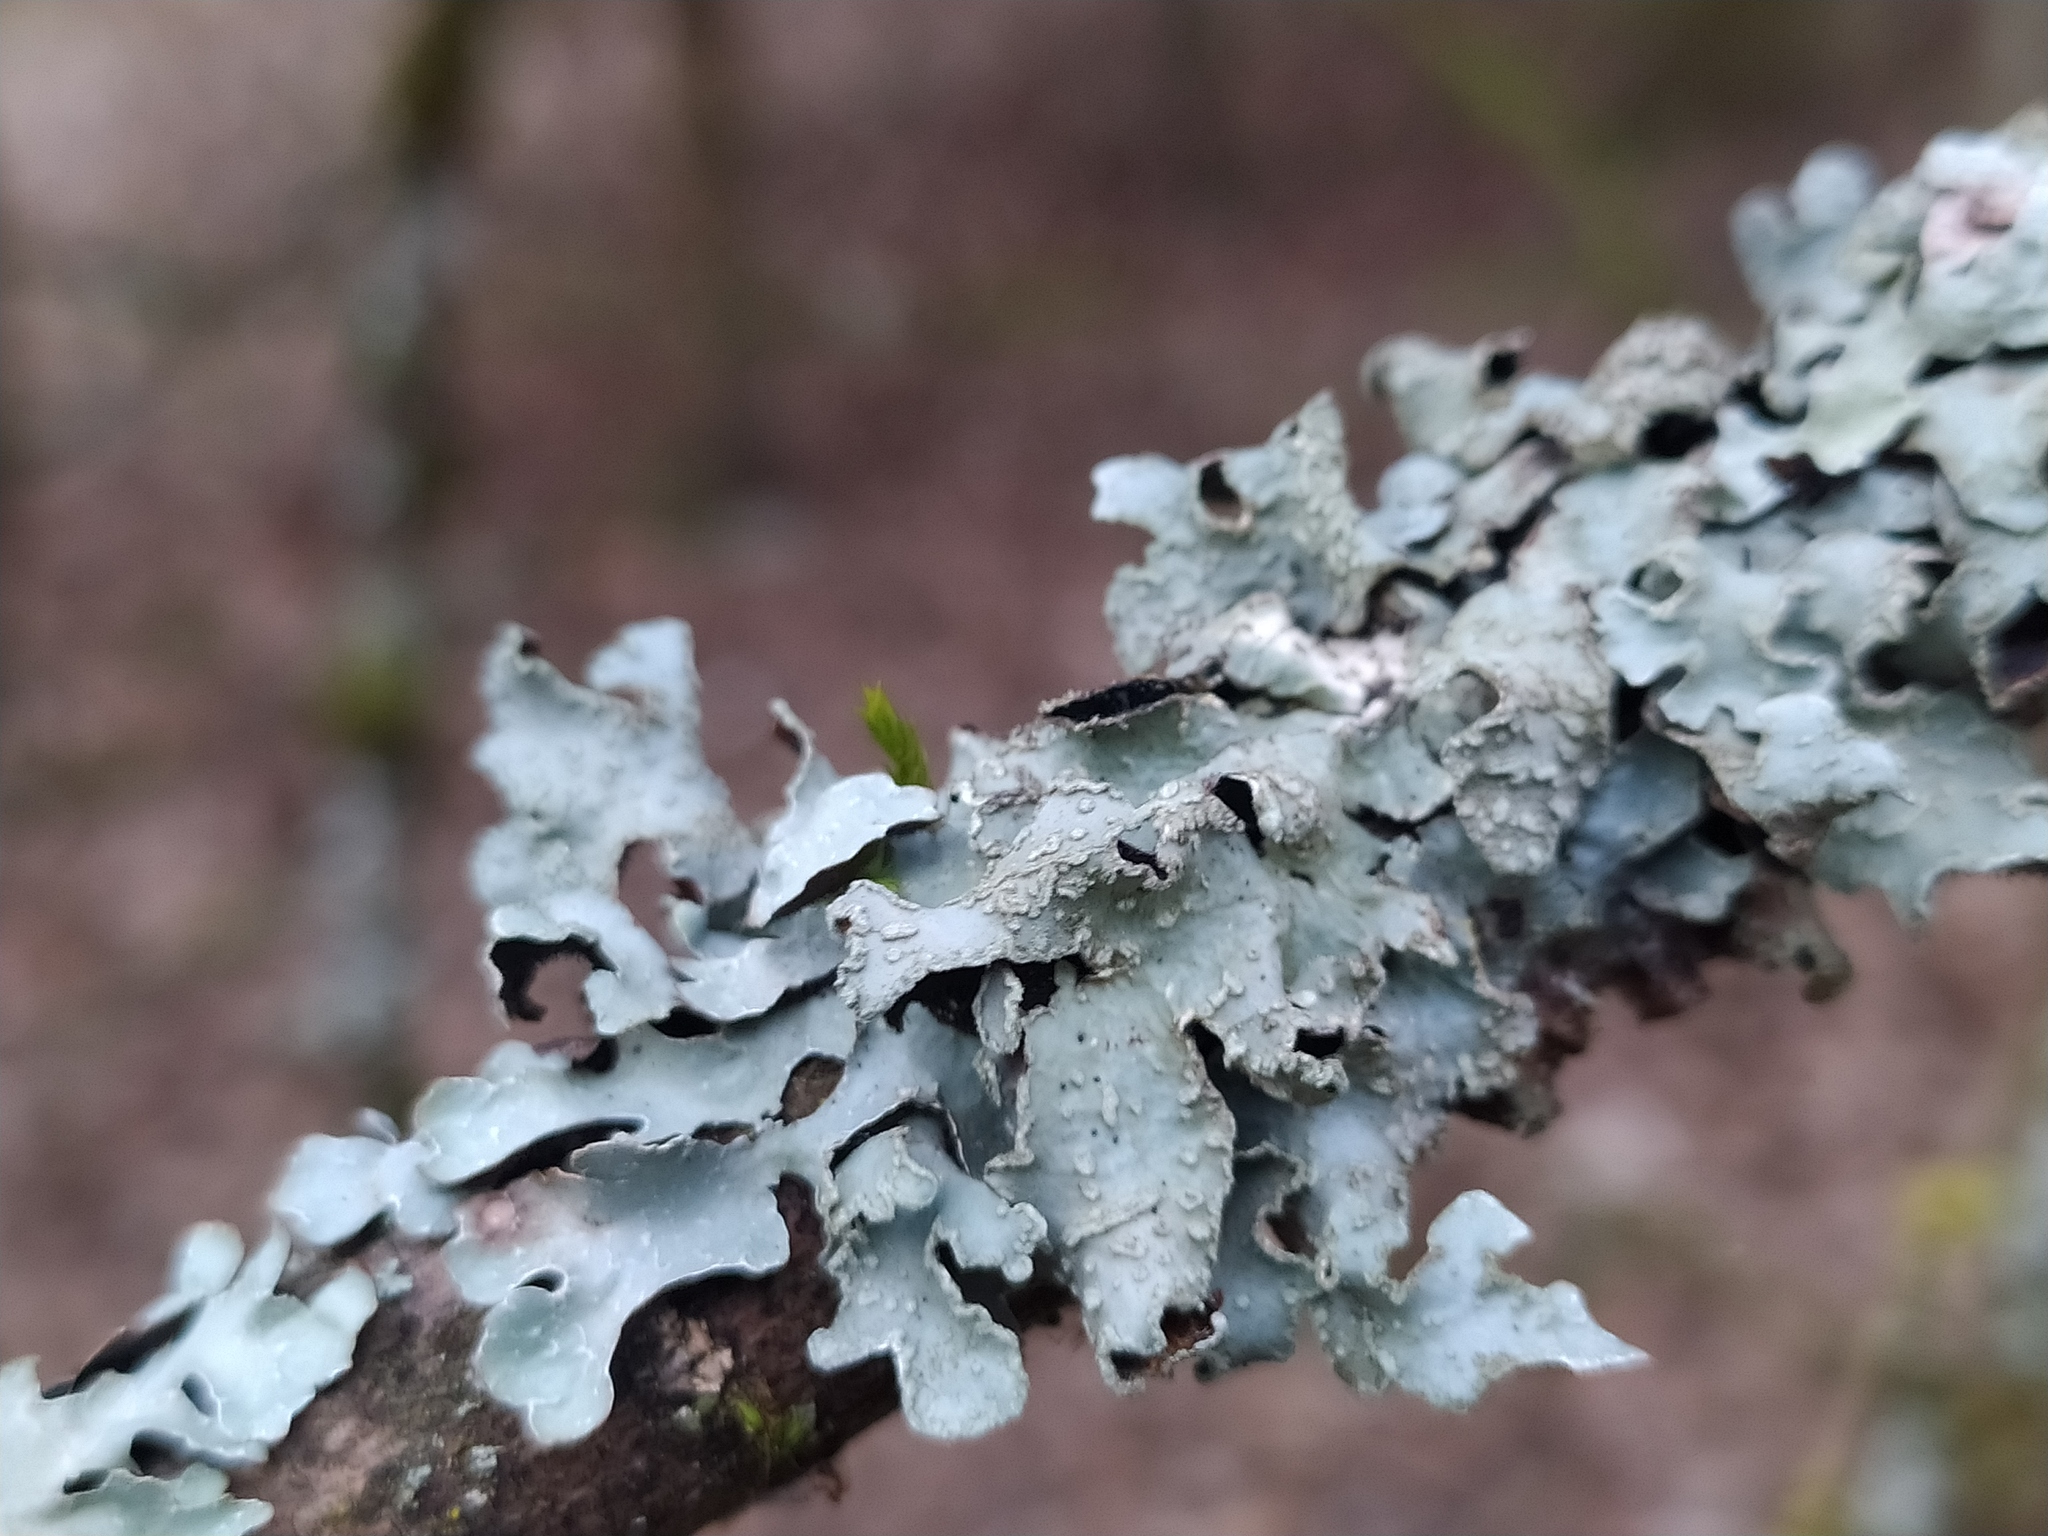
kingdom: Fungi
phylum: Ascomycota
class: Lecanoromycetes
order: Lecanorales
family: Parmeliaceae
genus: Parmelia
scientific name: Parmelia sulcata
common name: Netted shield lichen
